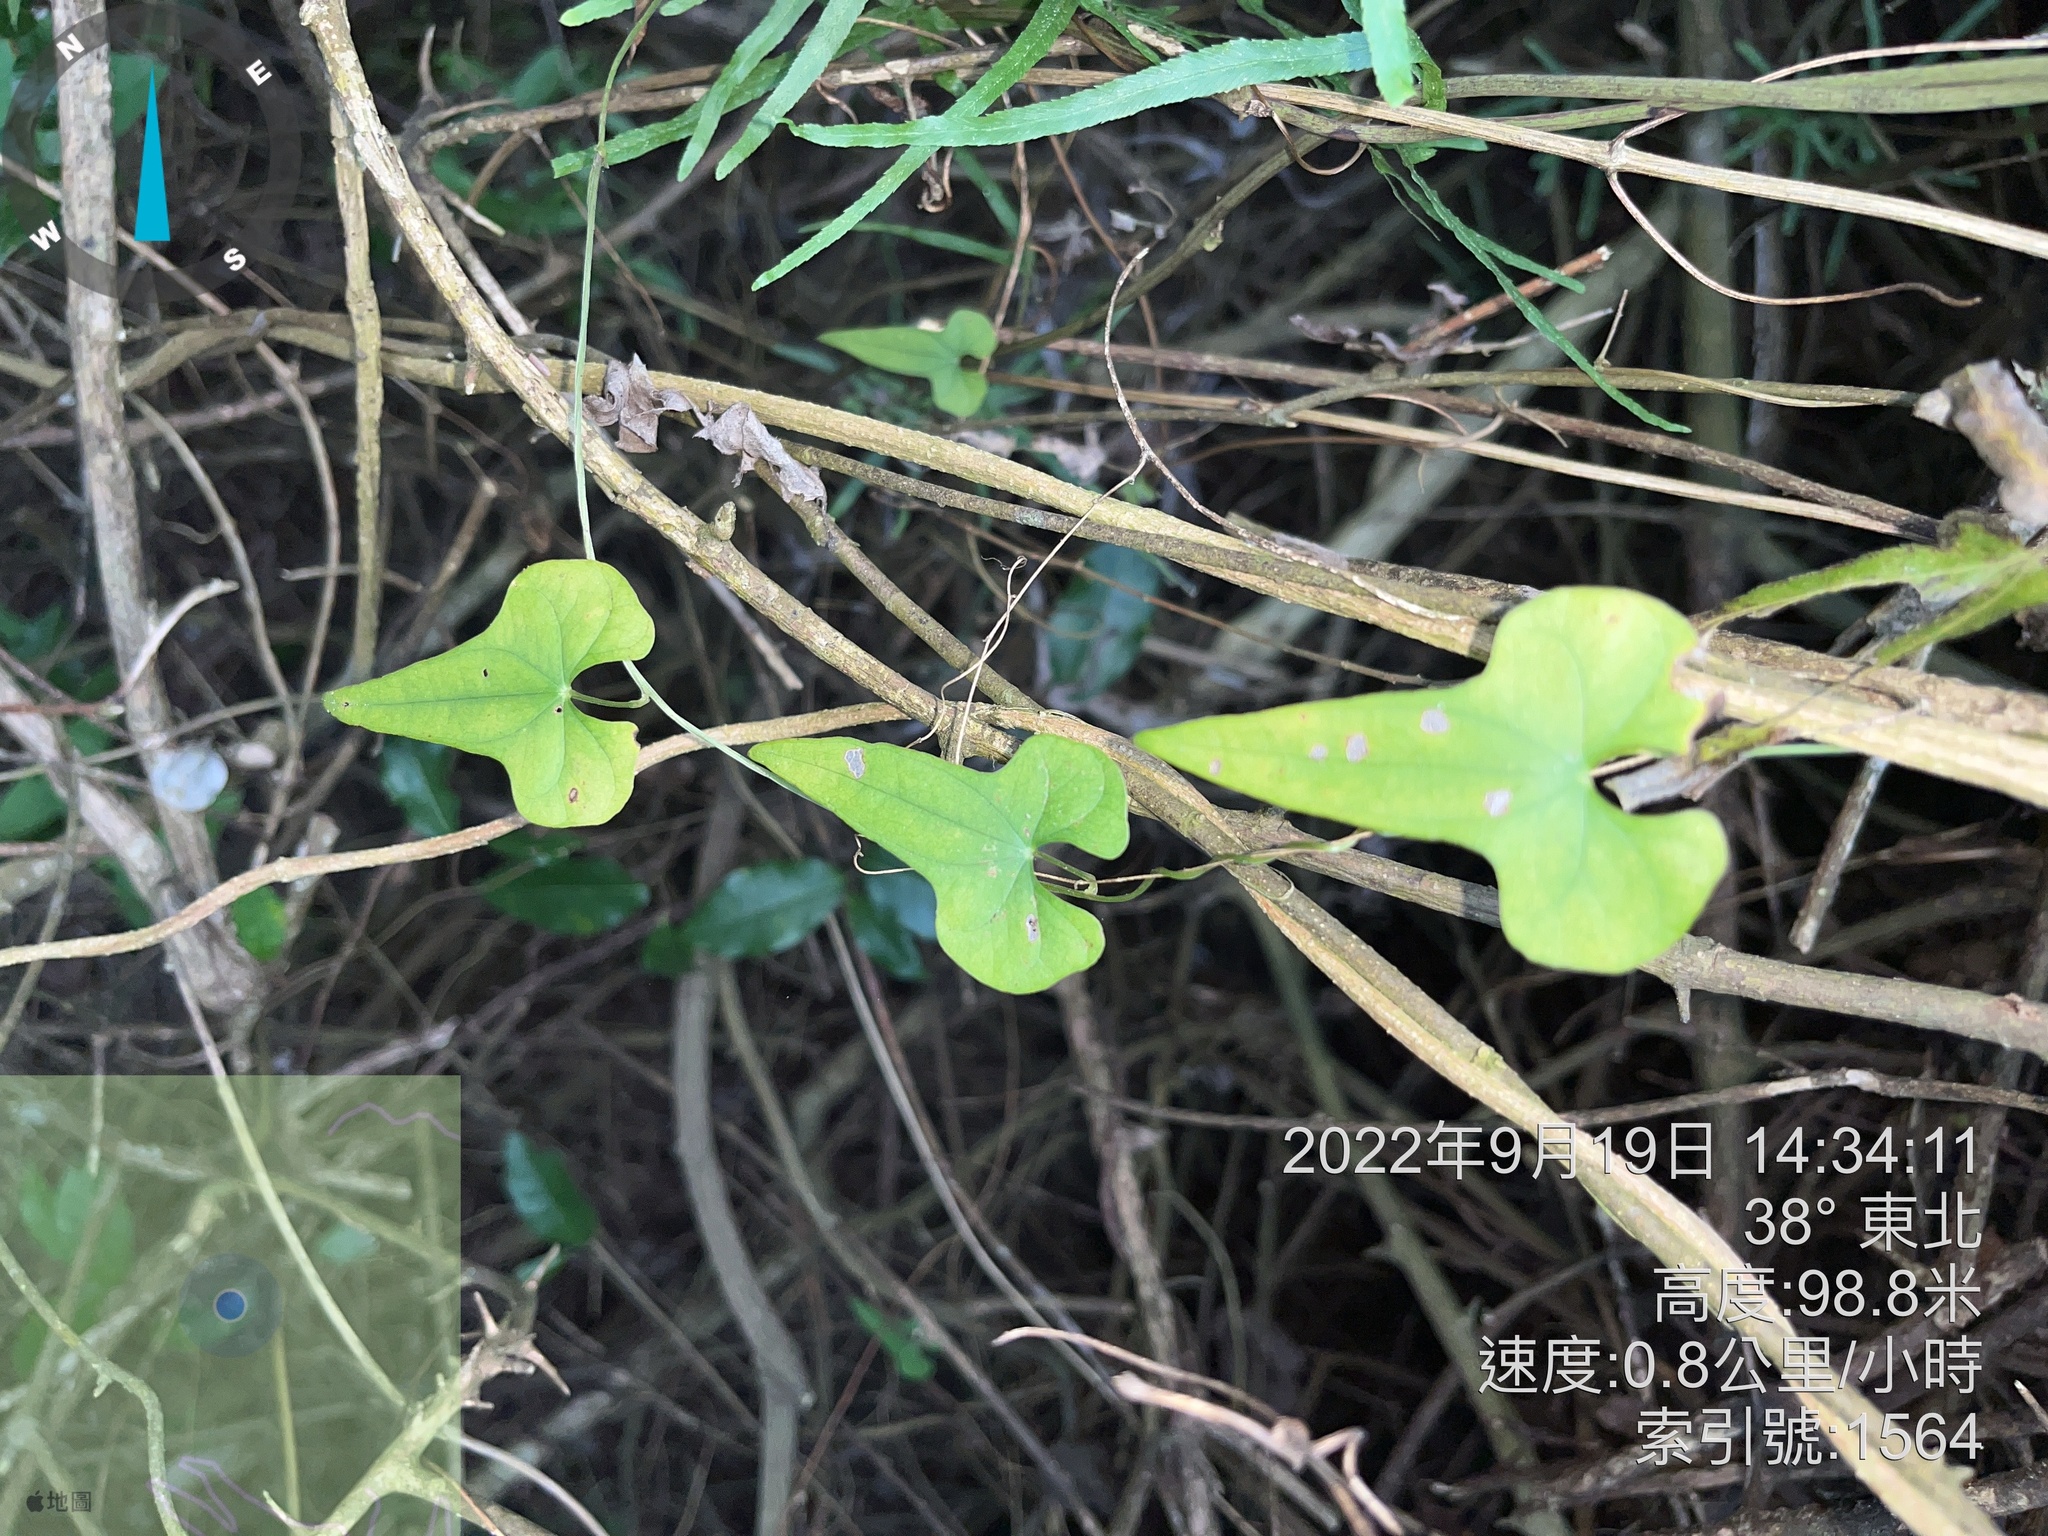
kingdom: Plantae
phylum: Tracheophyta
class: Liliopsida
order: Dioscoreales
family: Dioscoreaceae
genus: Dioscorea
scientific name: Dioscorea polystachya
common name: Chinese yam
